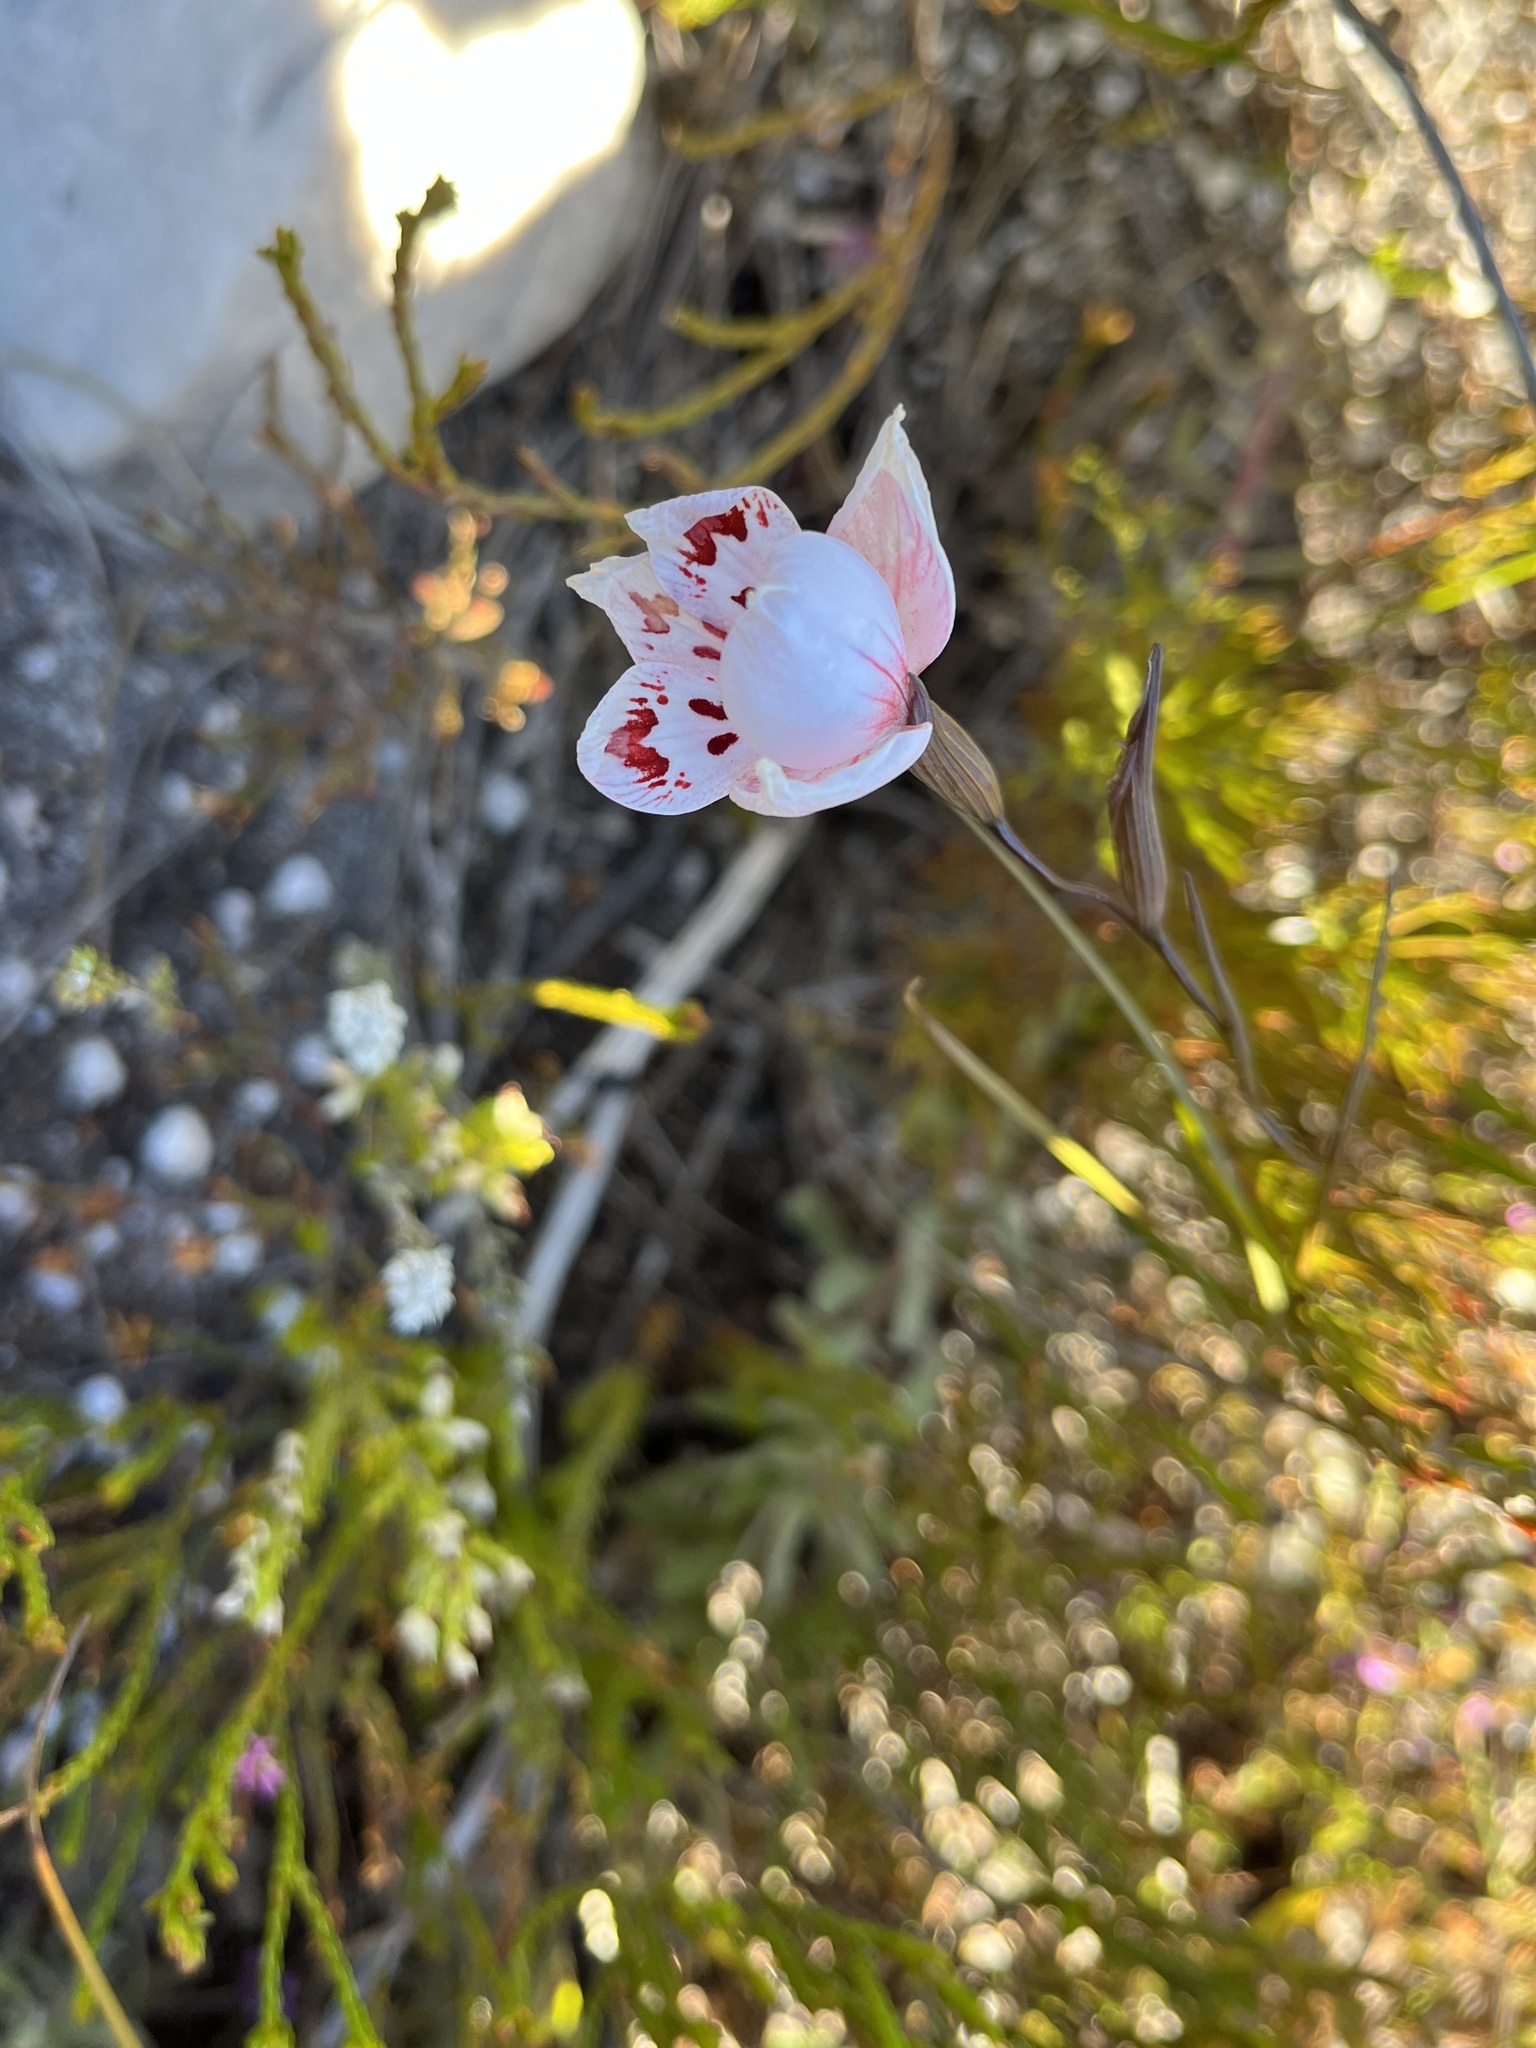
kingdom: Plantae
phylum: Tracheophyta
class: Liliopsida
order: Asparagales
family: Iridaceae
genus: Gladiolus
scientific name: Gladiolus debilis
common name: Painted-lady
